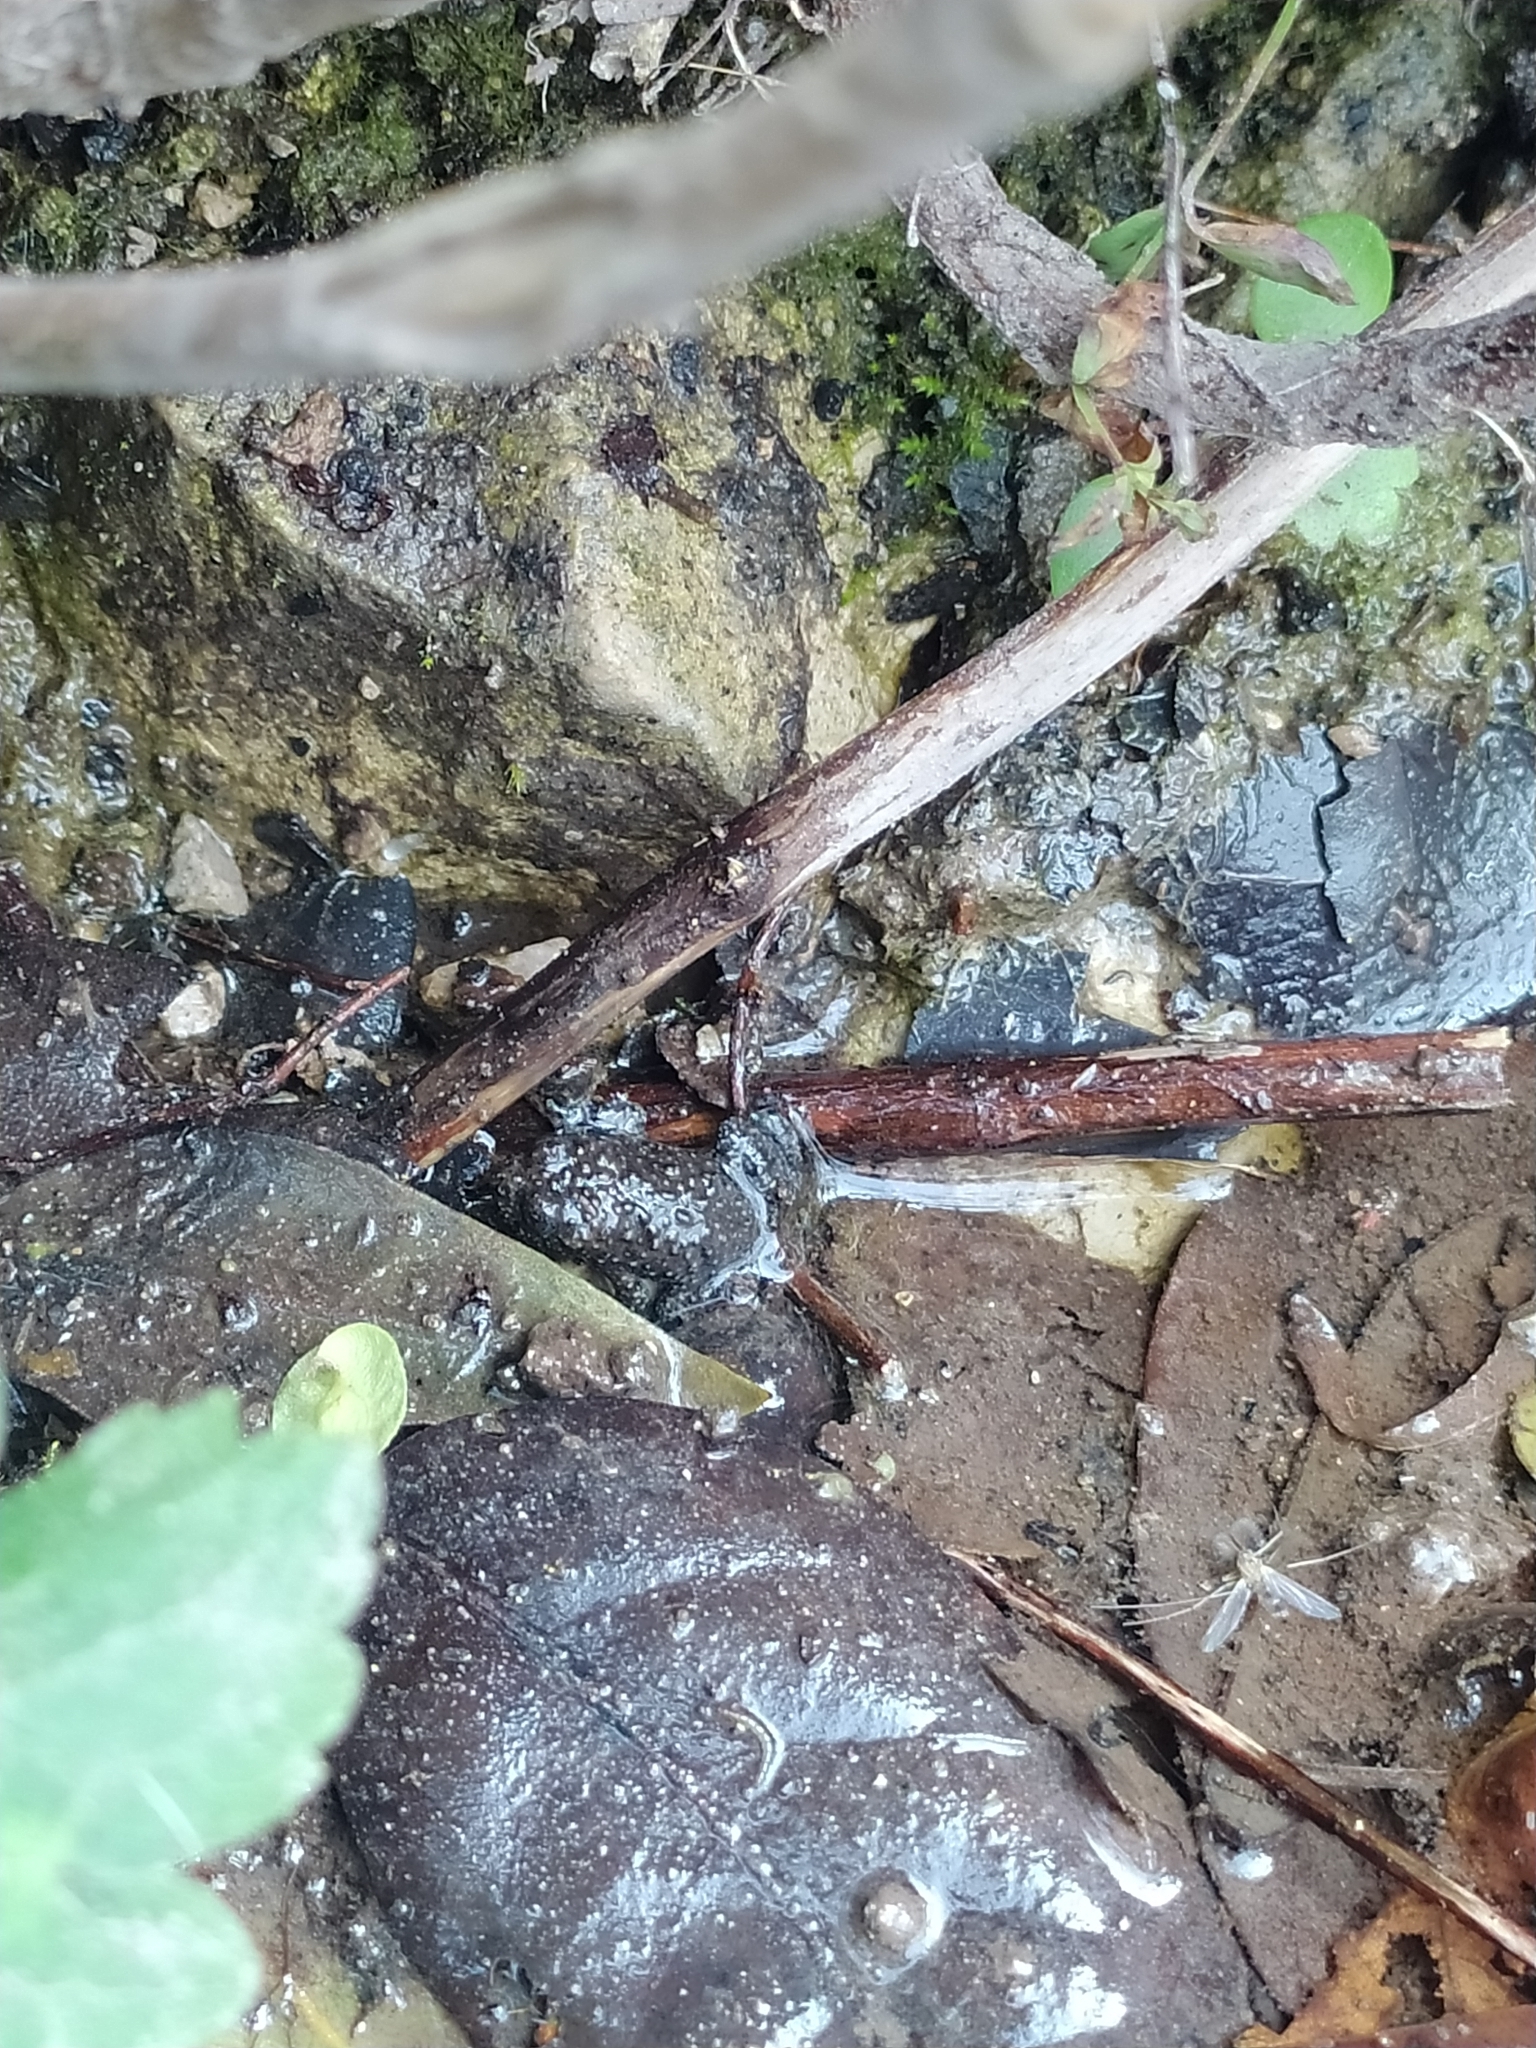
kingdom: Animalia
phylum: Chordata
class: Amphibia
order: Anura
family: Bombinatoridae
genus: Bombina
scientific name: Bombina variegata
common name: Yellow-bellied toad
